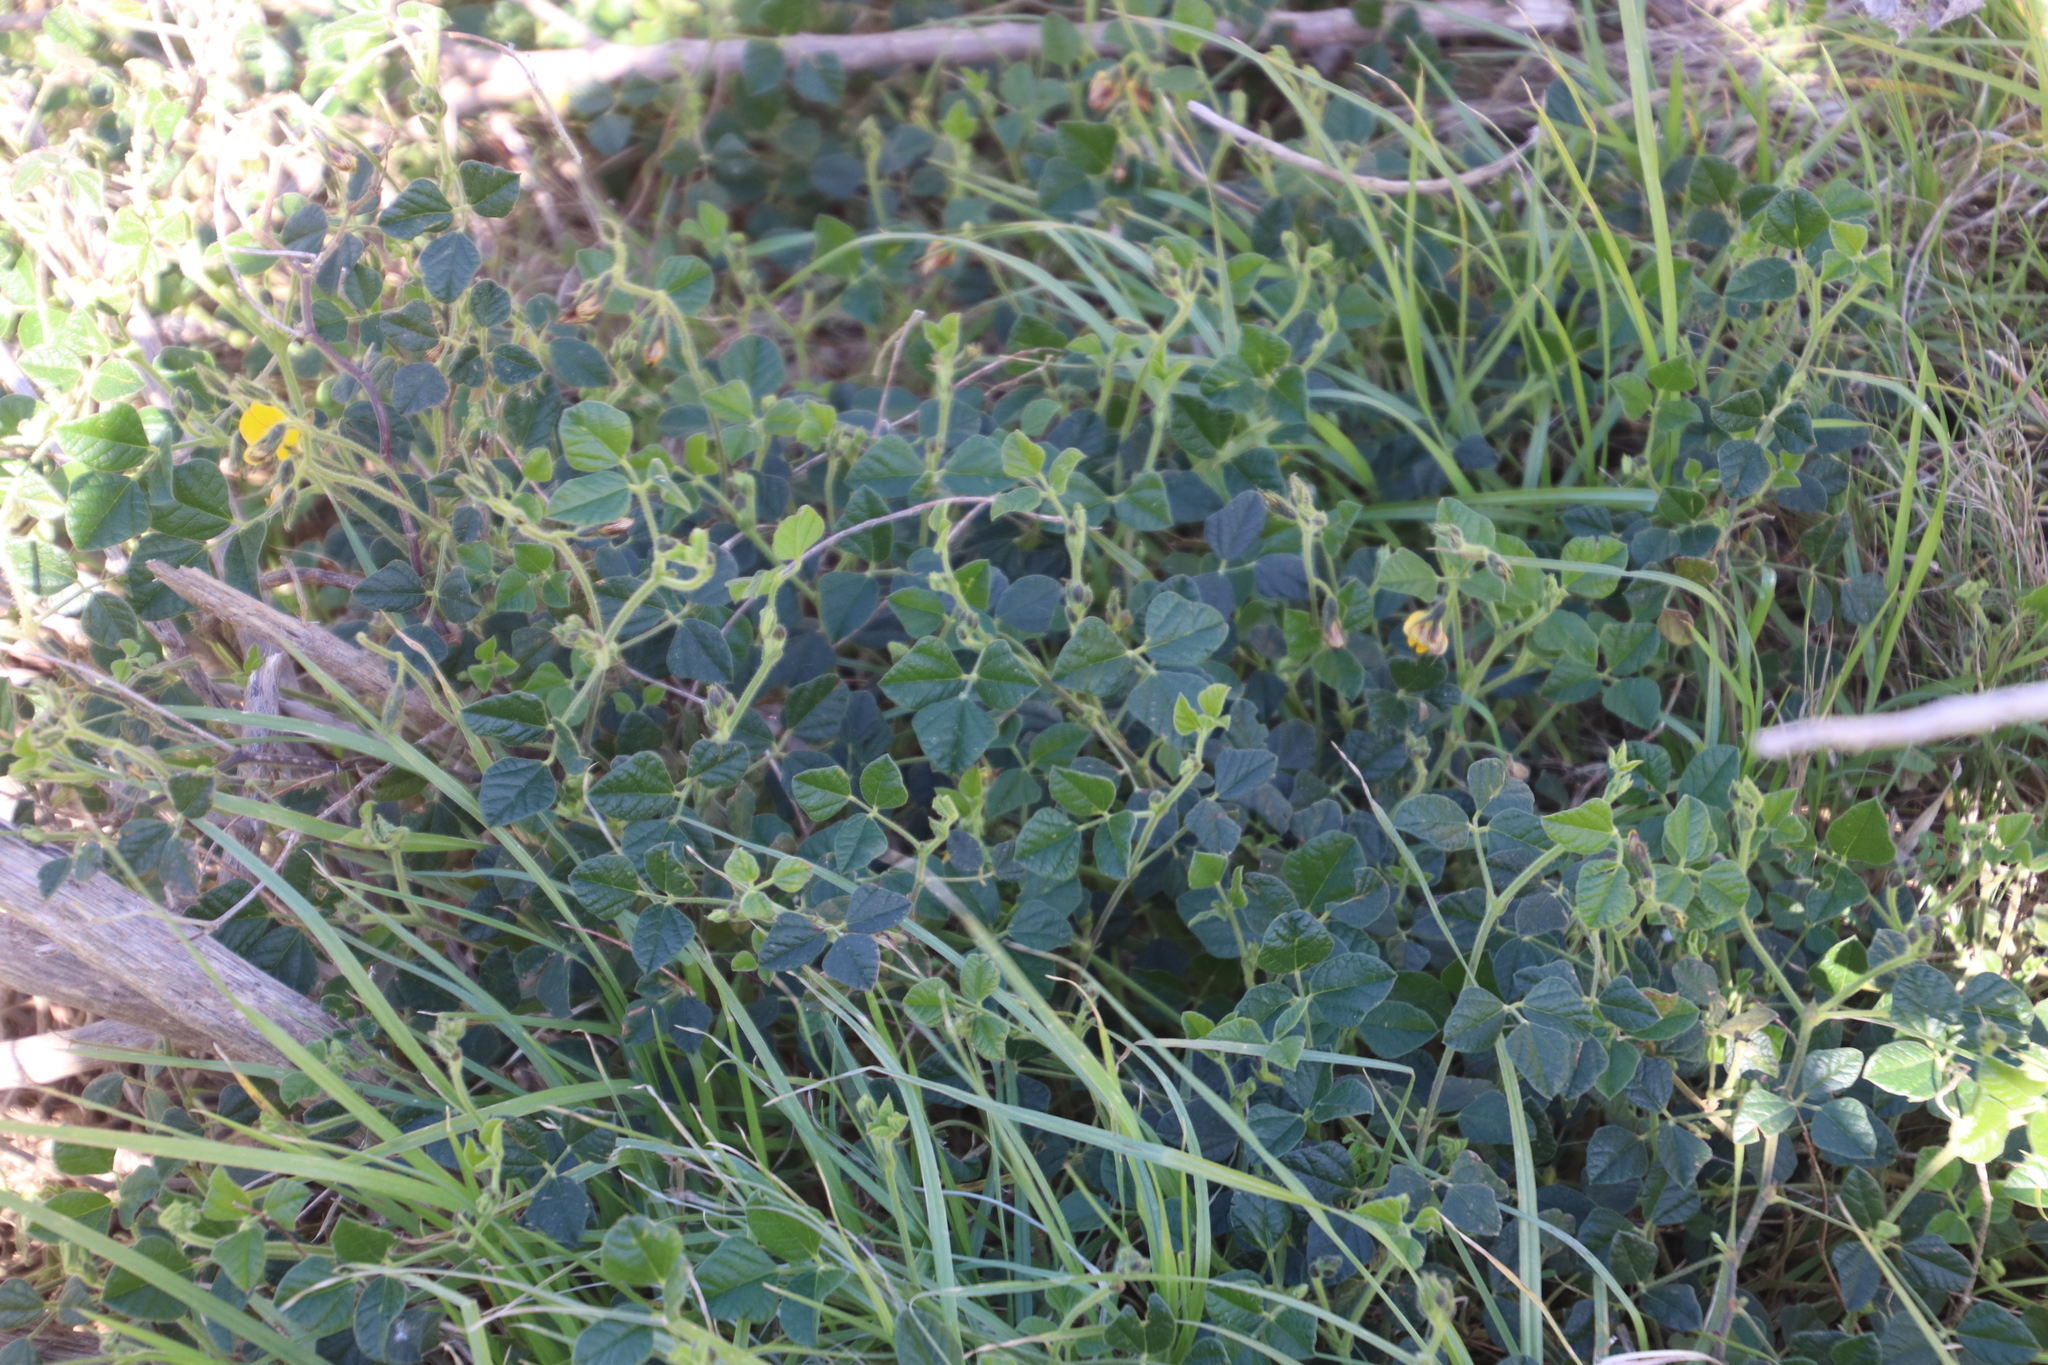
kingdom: Plantae
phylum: Tracheophyta
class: Magnoliopsida
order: Fabales
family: Fabaceae
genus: Bolusafra
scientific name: Bolusafra bituminosa
